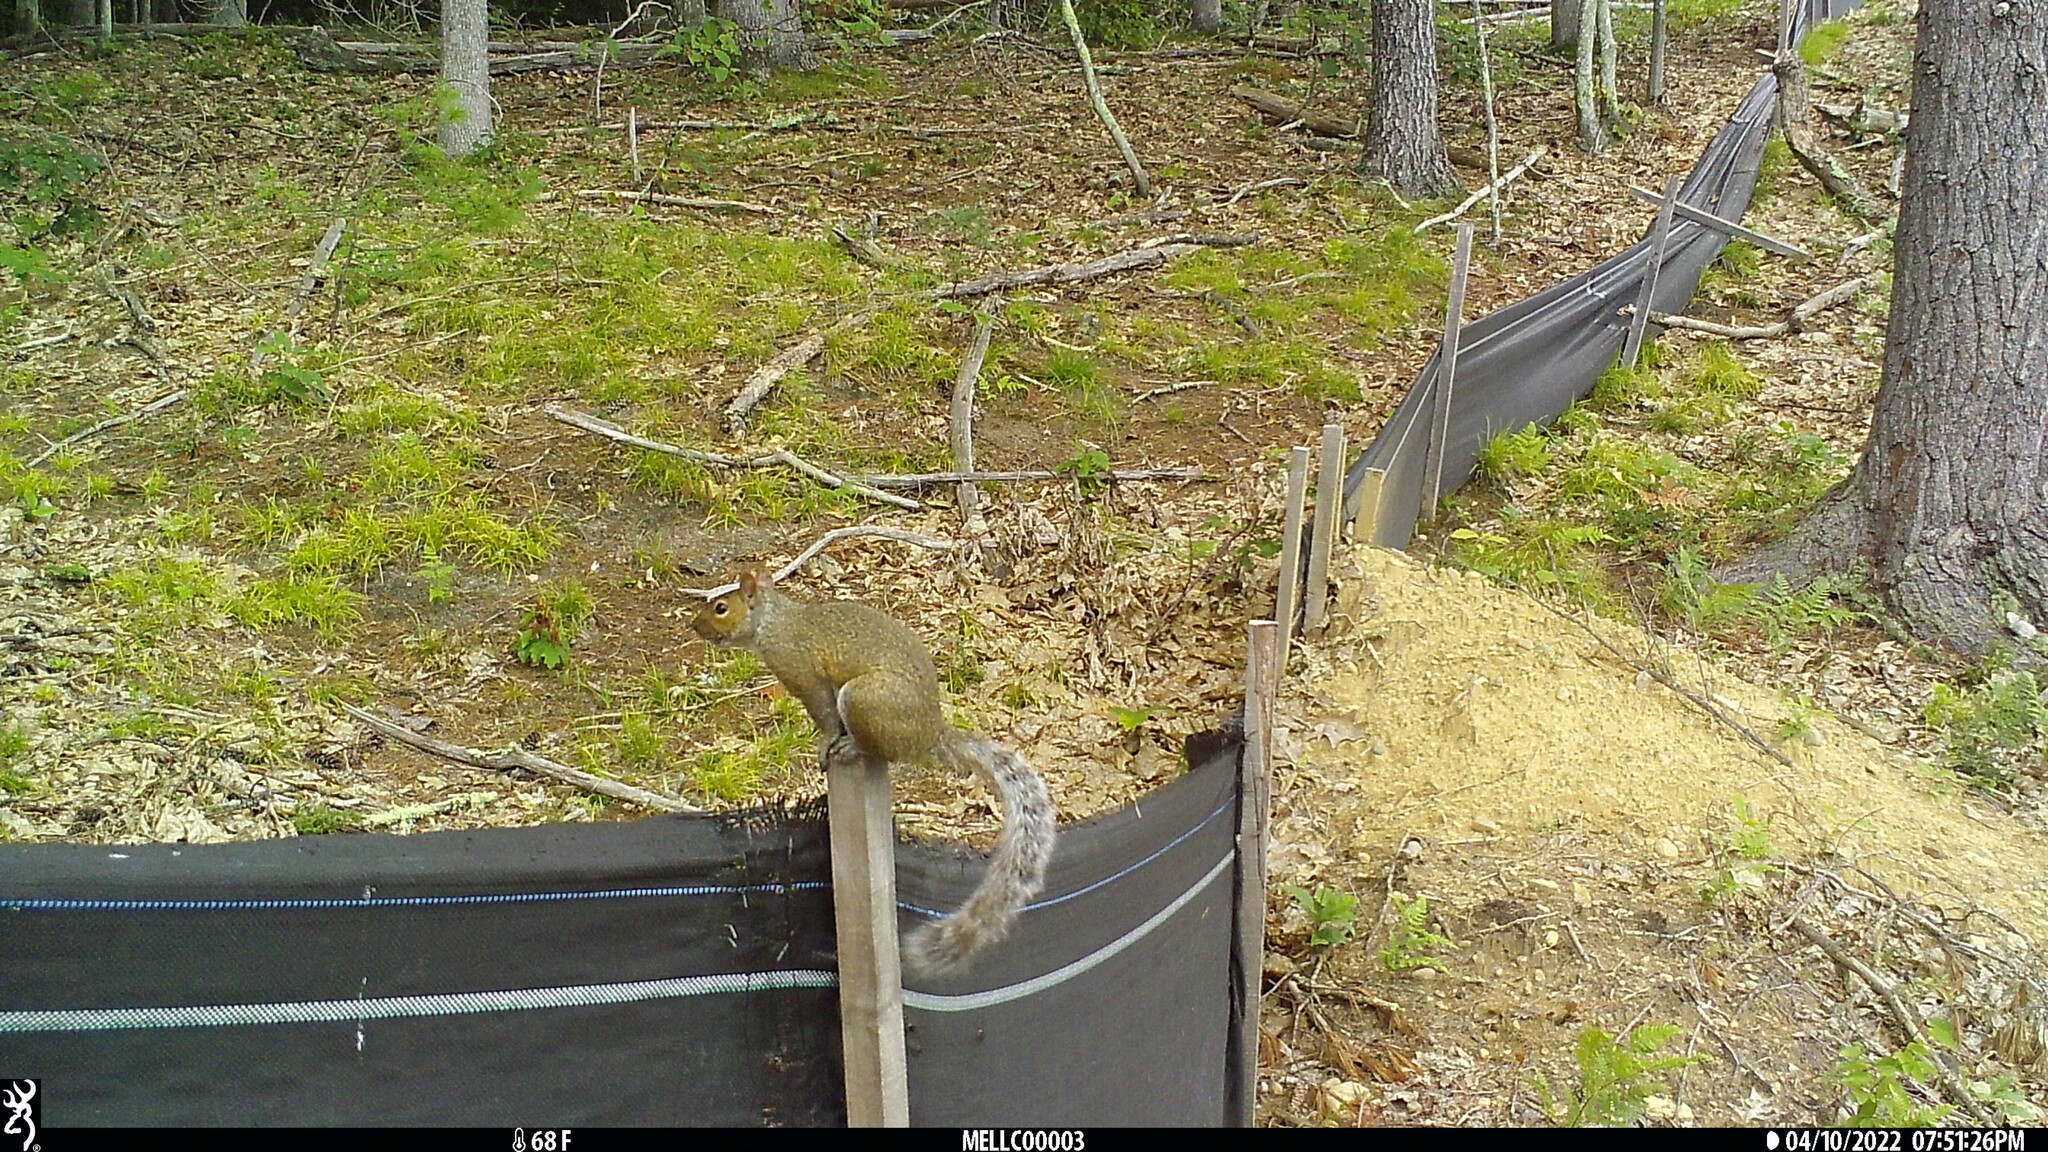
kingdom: Animalia
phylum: Chordata
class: Mammalia
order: Rodentia
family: Sciuridae
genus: Sciurus
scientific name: Sciurus carolinensis
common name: Eastern gray squirrel
